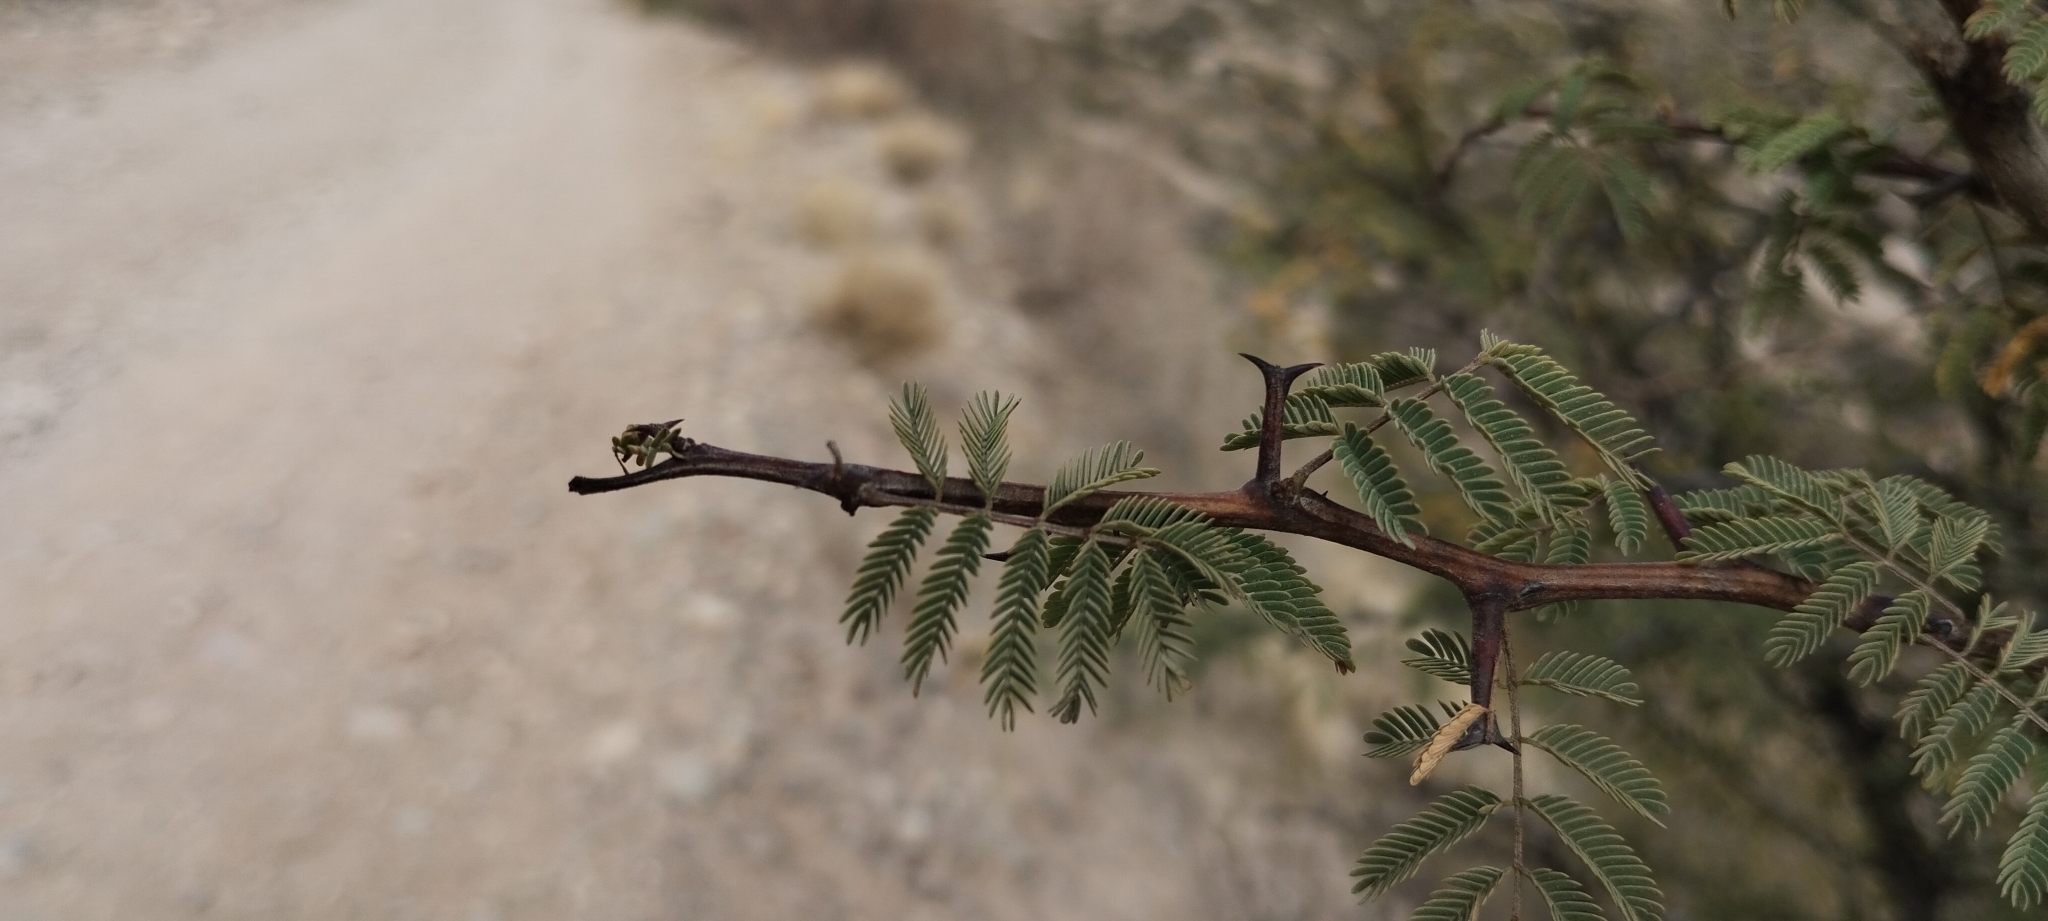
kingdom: Plantae
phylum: Tracheophyta
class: Magnoliopsida
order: Fabales
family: Fabaceae
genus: Senegalia
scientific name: Senegalia gilliesii
